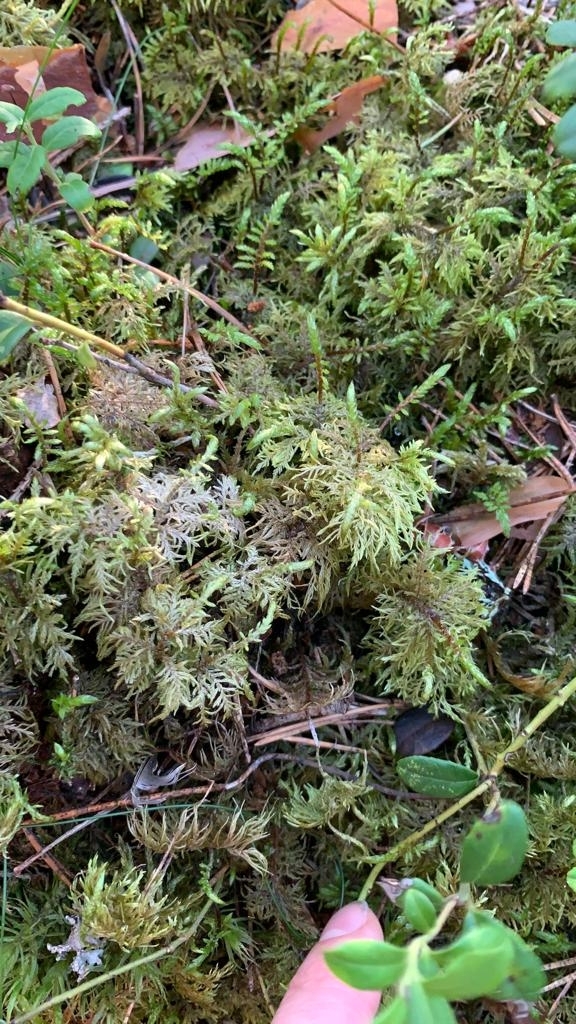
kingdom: Plantae
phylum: Bryophyta
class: Bryopsida
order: Hypnales
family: Hylocomiaceae
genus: Hylocomium
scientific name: Hylocomium splendens
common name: Stairstep moss
